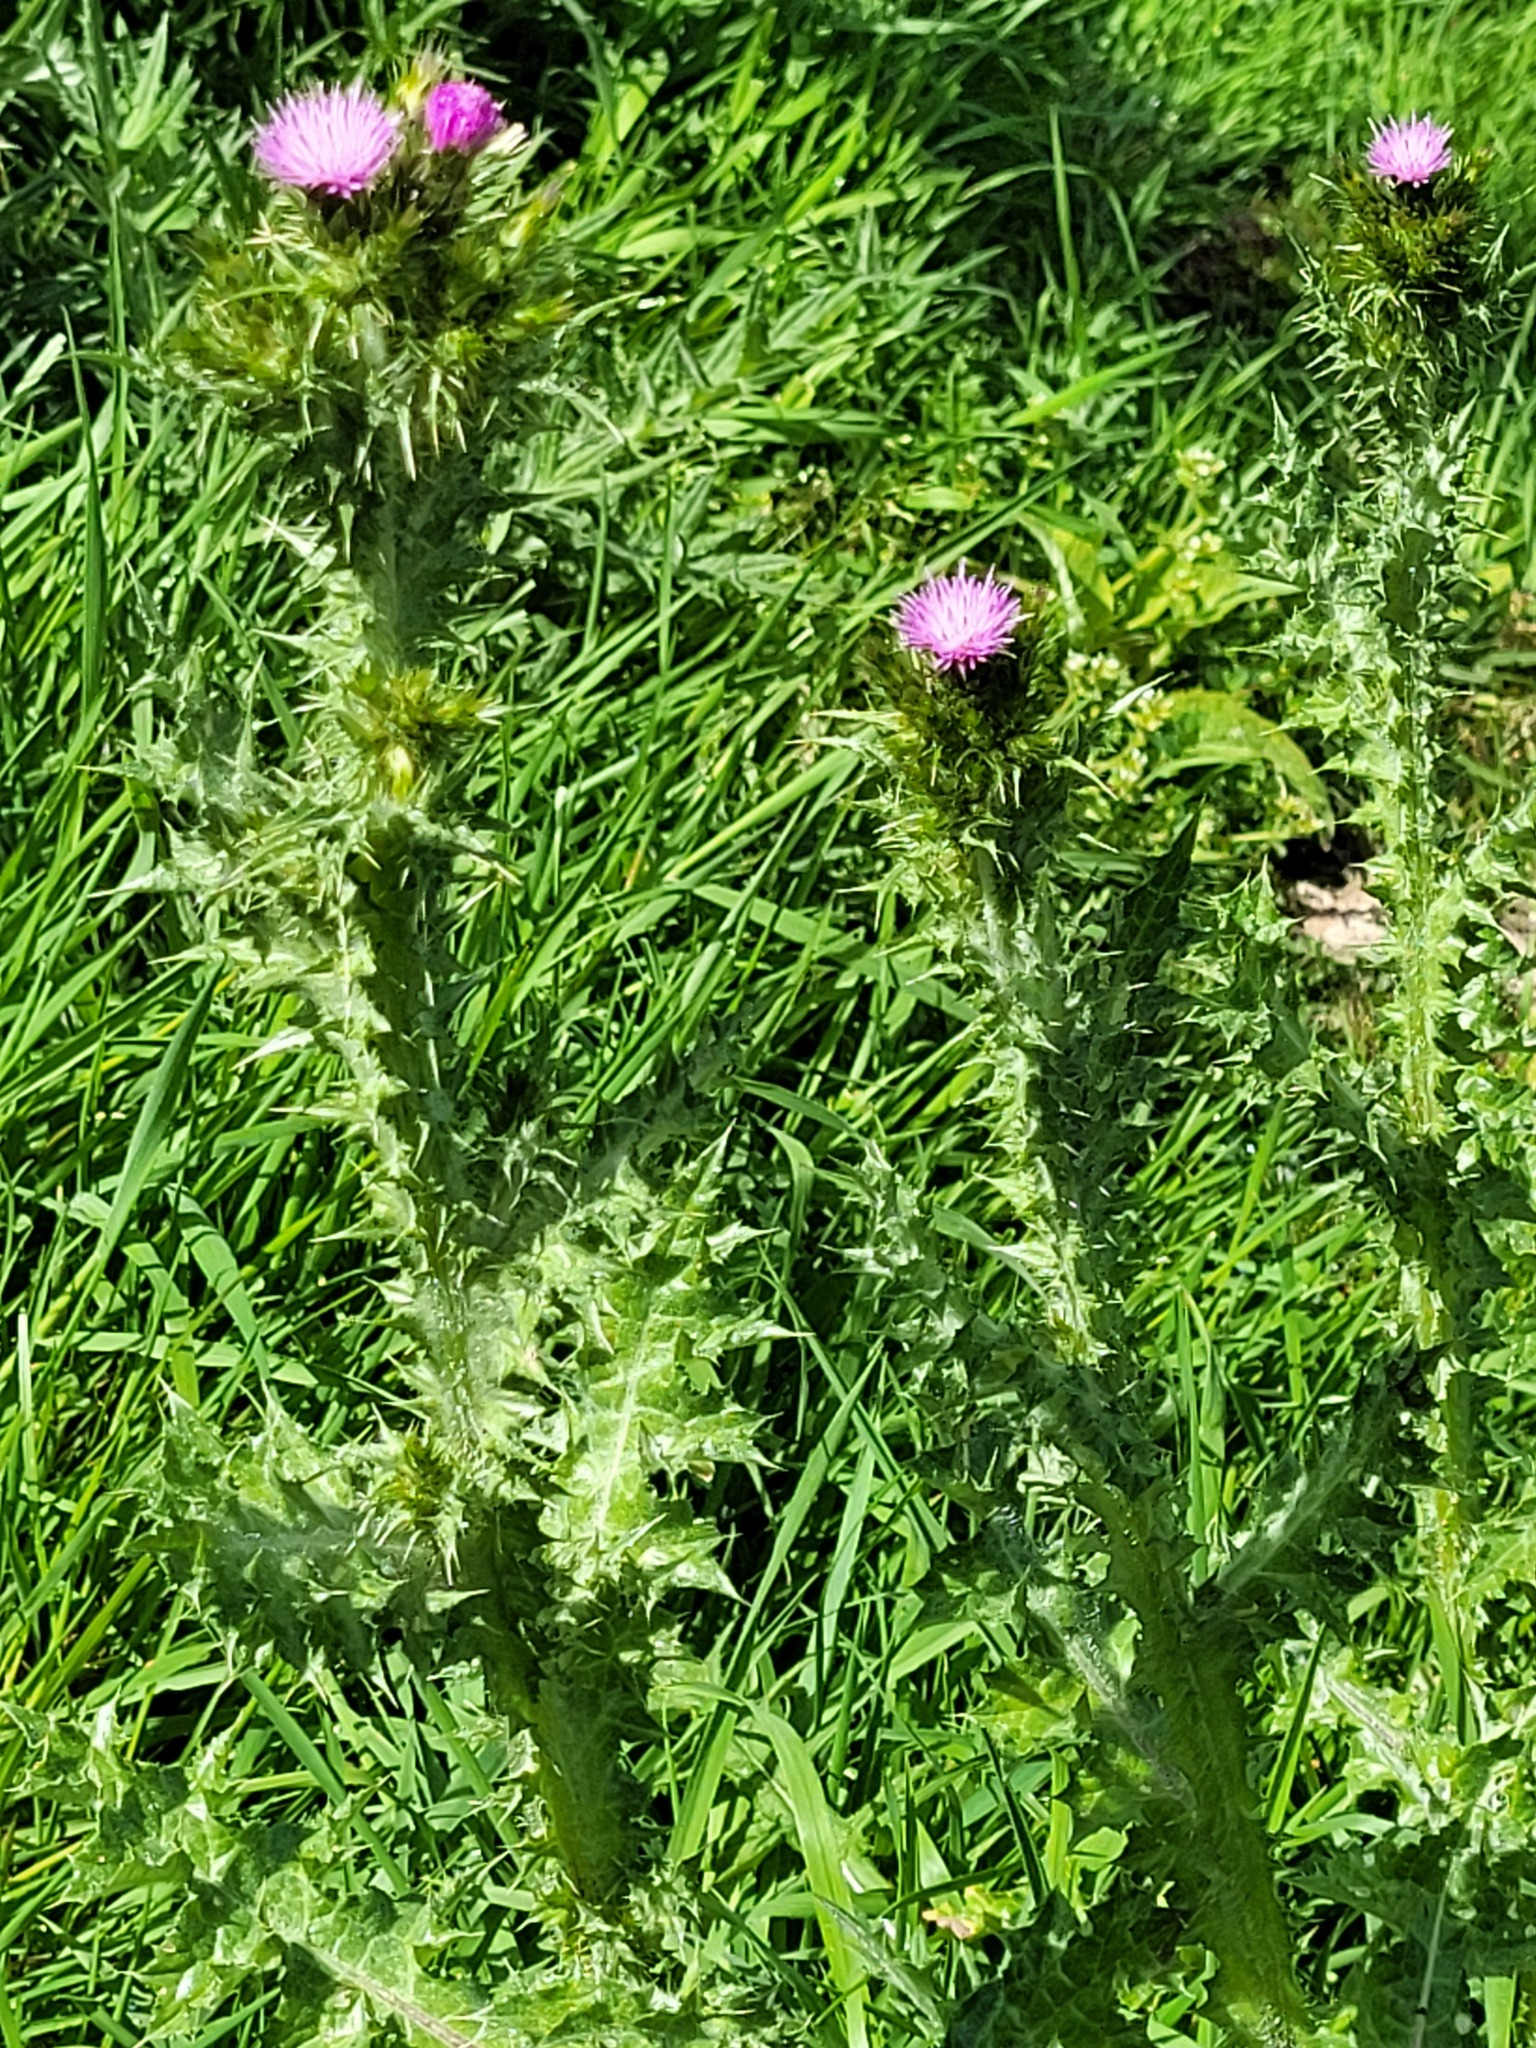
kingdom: Plantae
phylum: Tracheophyta
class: Magnoliopsida
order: Asterales
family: Asteraceae
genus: Carduus
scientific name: Carduus tenuiflorus
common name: Slender thistle
